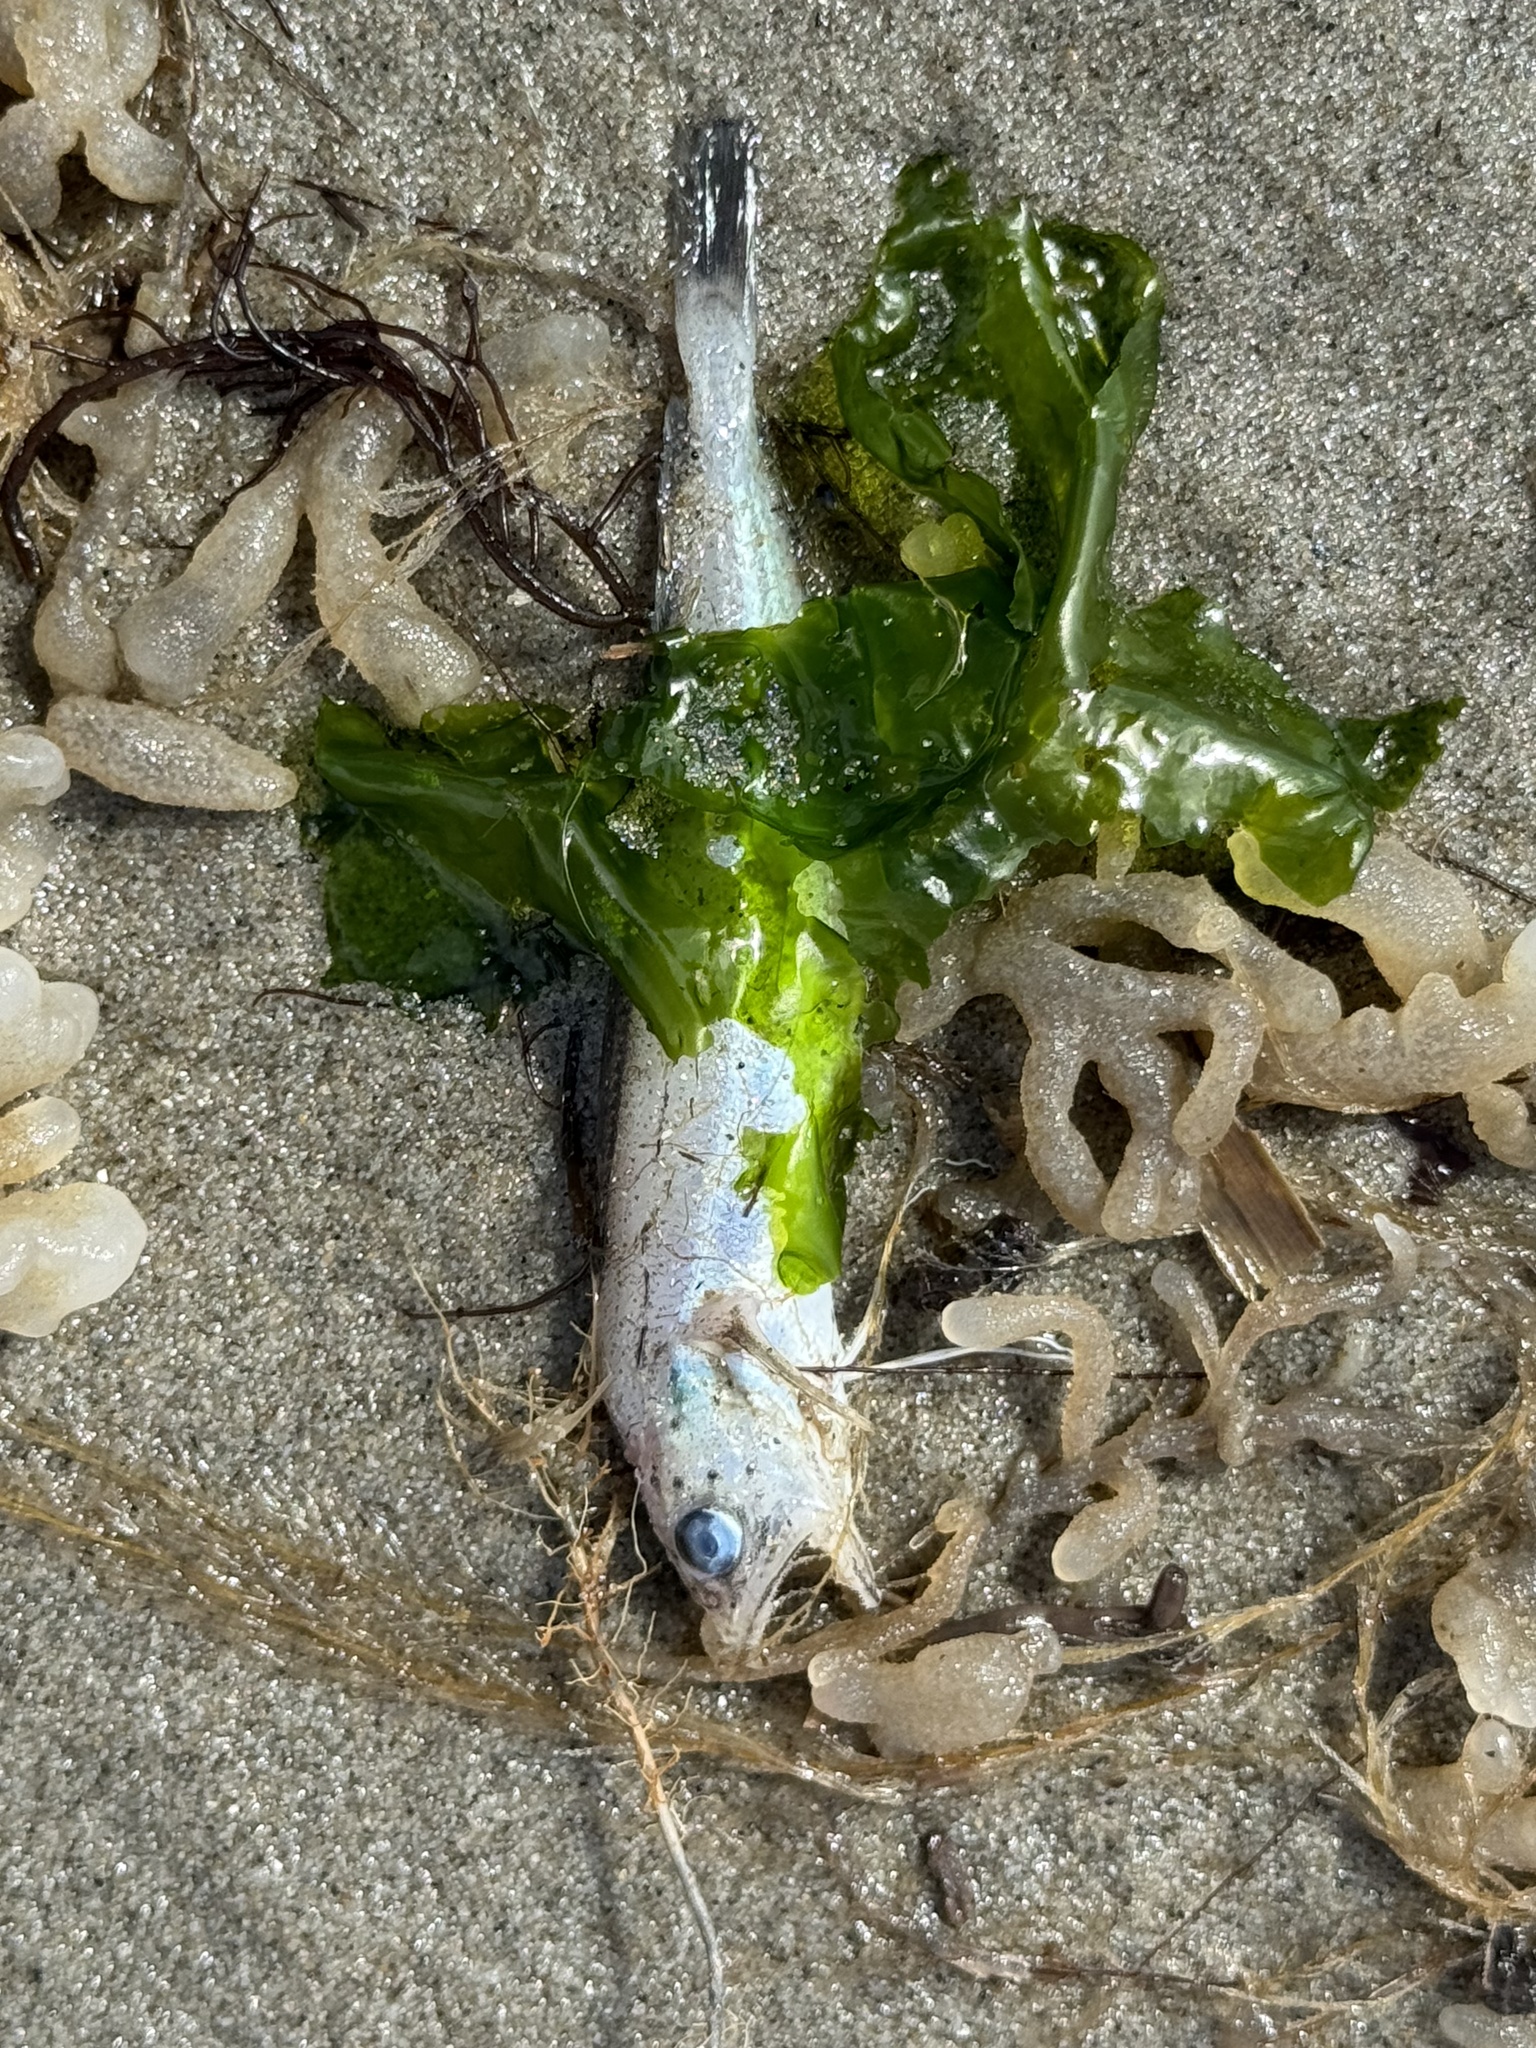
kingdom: Animalia
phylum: Chordata
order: Gadiformes
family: Phycidae
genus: Urophycis
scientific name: Urophycis regia
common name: Spotted codling
